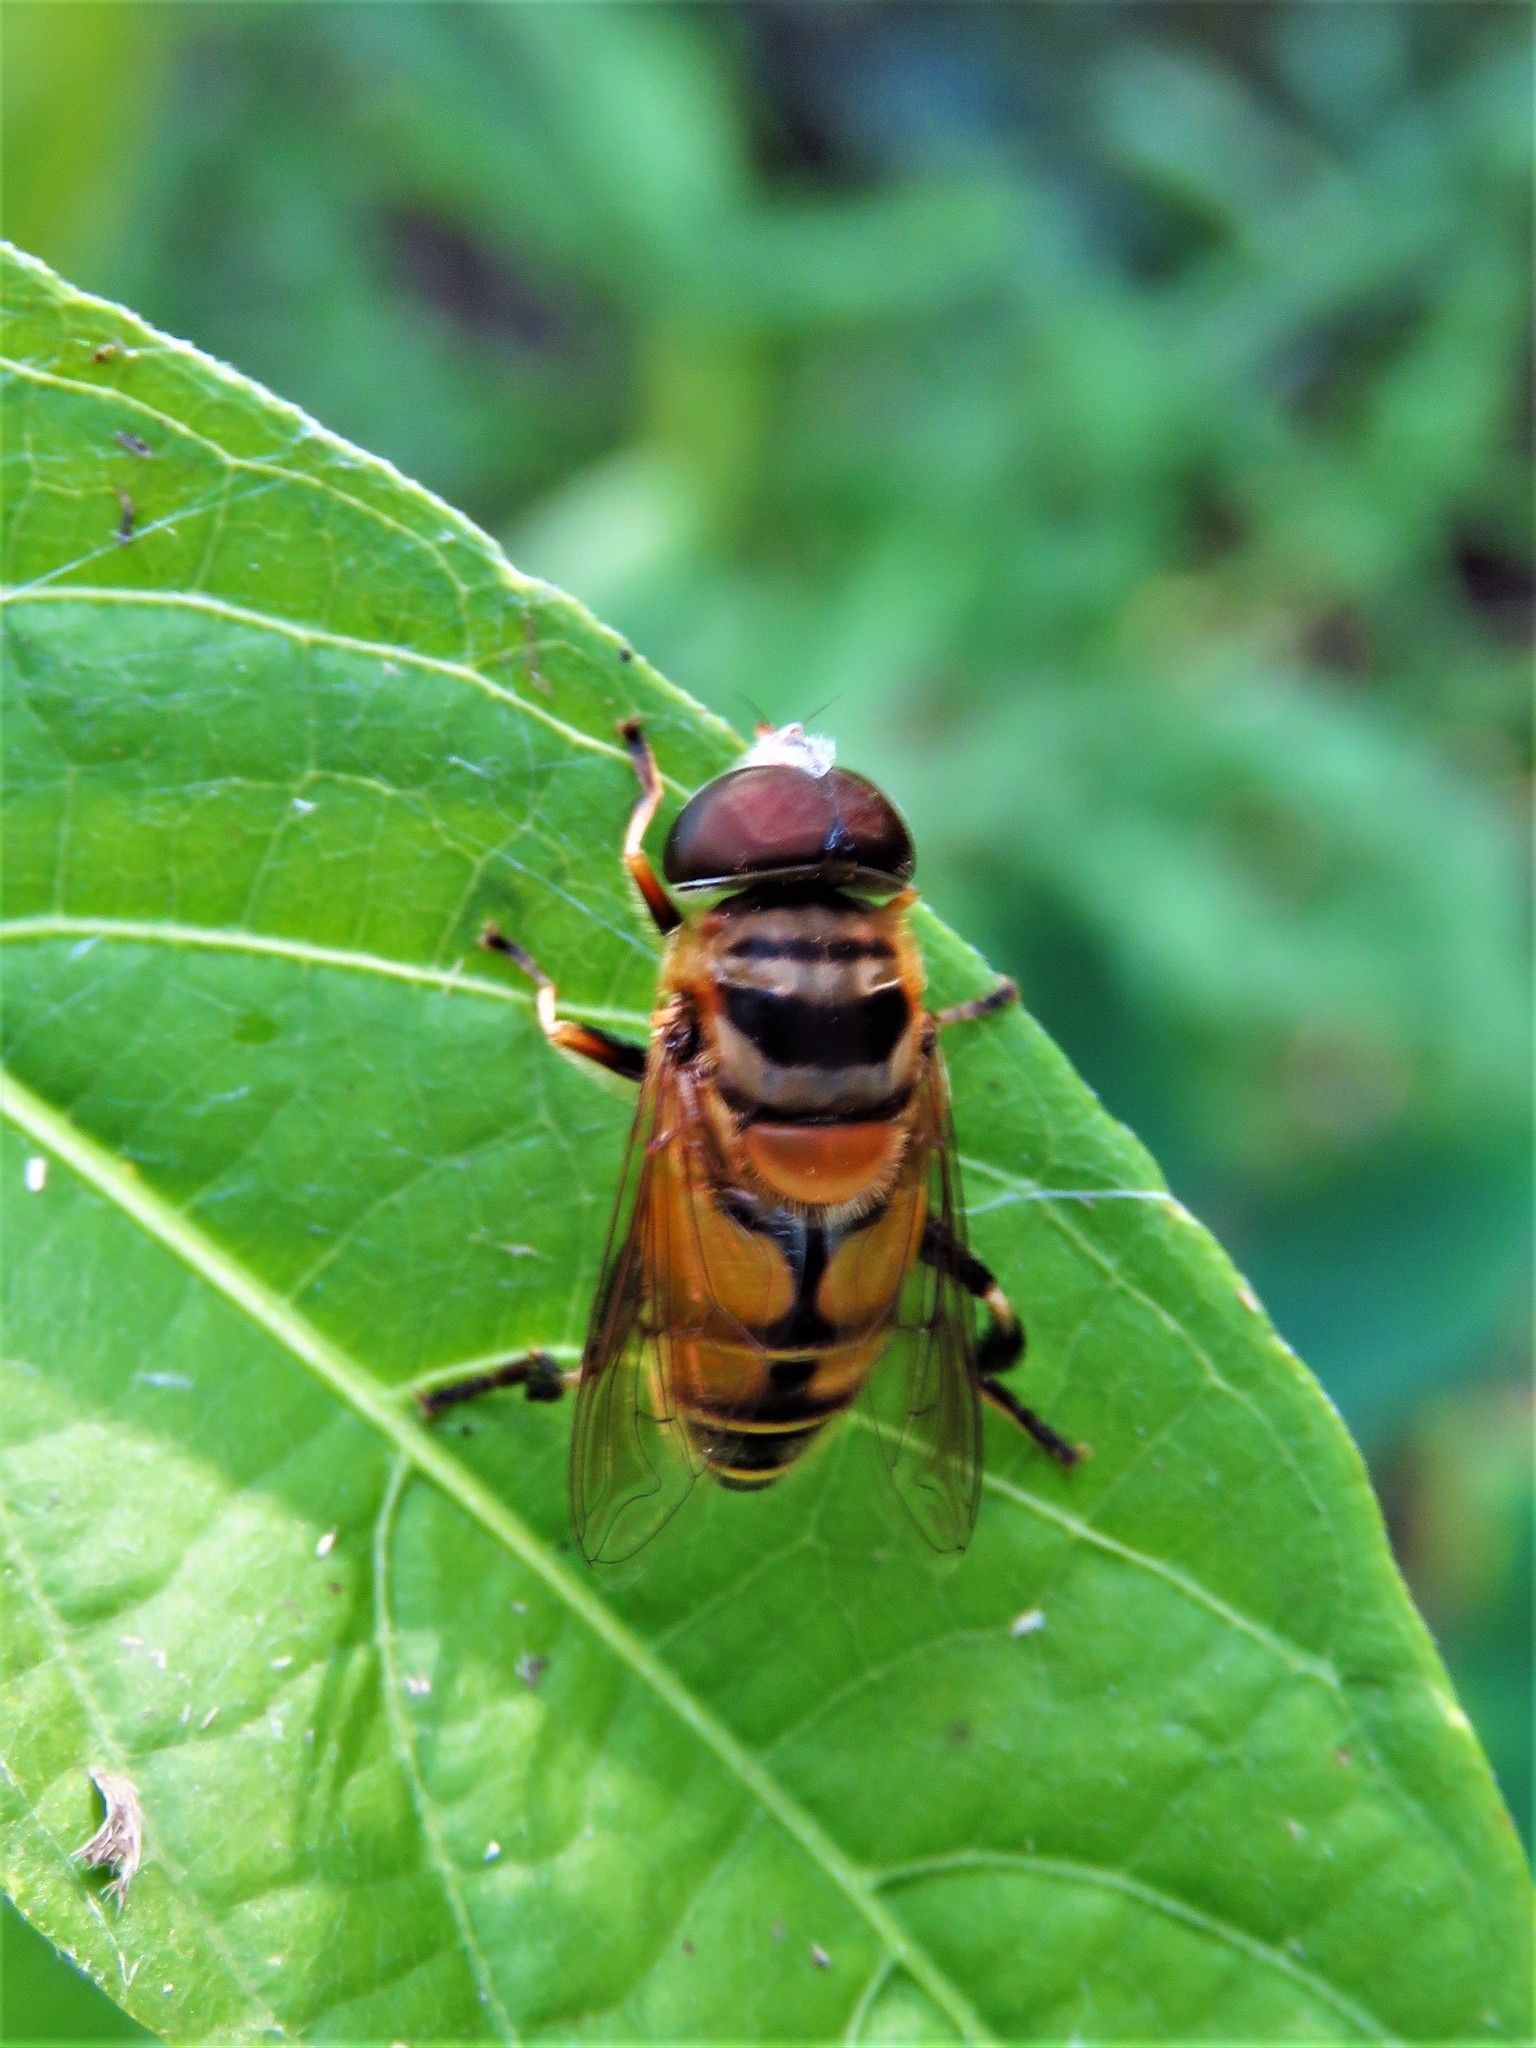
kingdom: Animalia
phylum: Arthropoda
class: Insecta
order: Diptera
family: Syrphidae
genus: Palpada
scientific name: Palpada vinetorum
